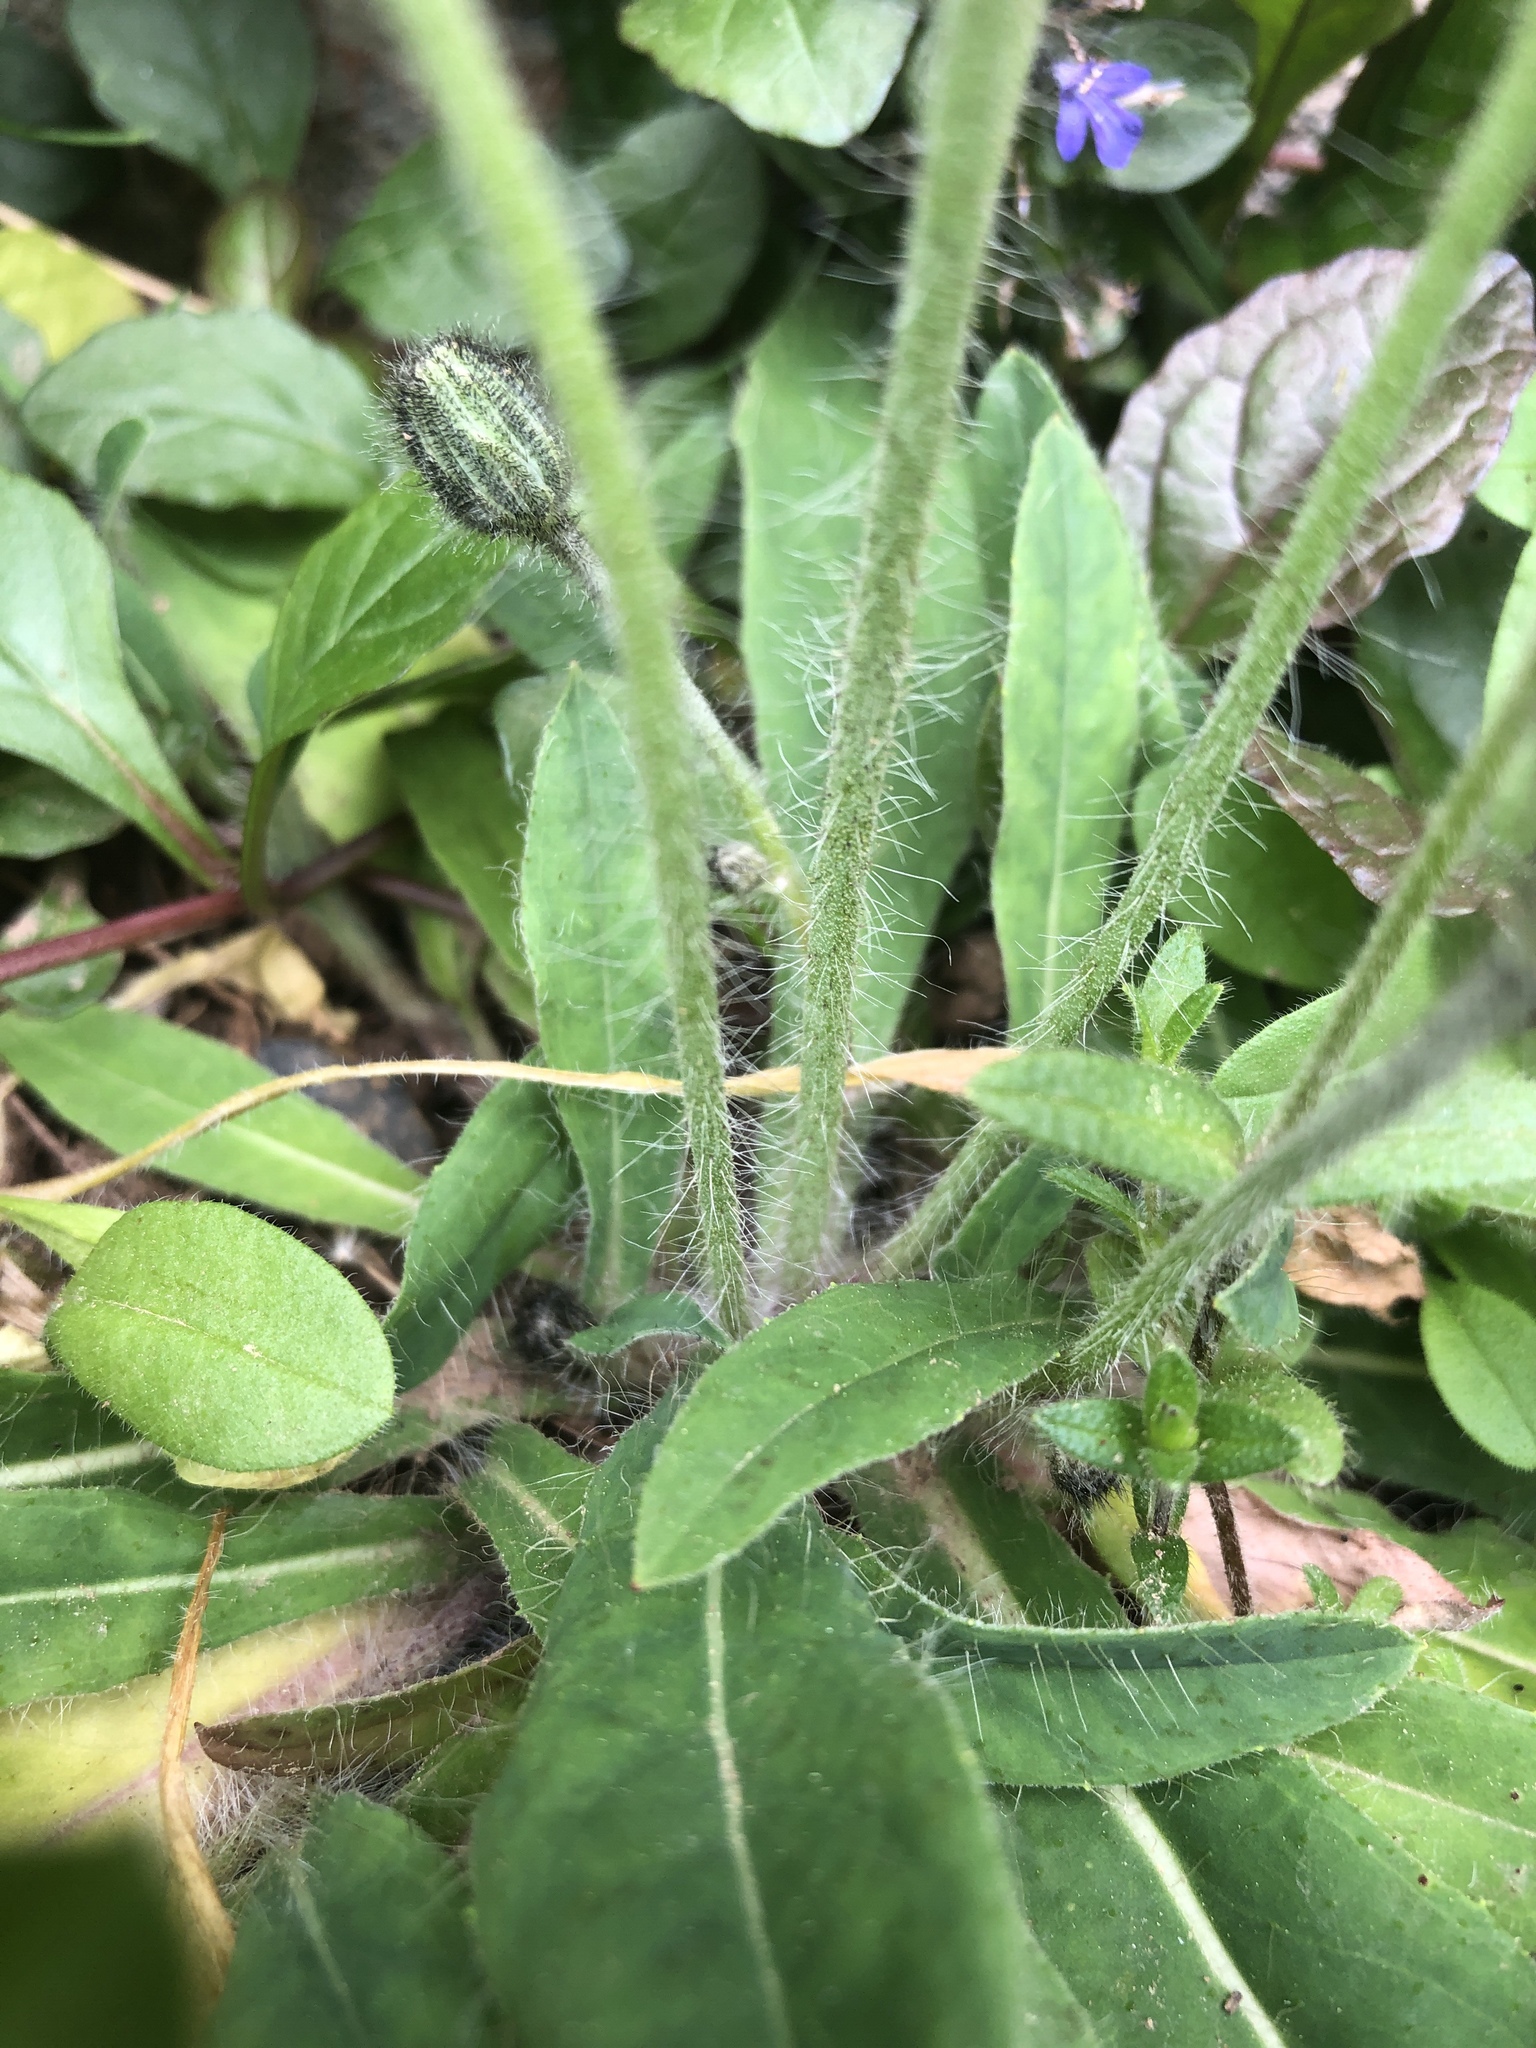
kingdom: Plantae
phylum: Tracheophyta
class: Magnoliopsida
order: Asterales
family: Asteraceae
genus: Pilosella
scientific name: Pilosella officinarum
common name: Mouse-ear hawkweed
